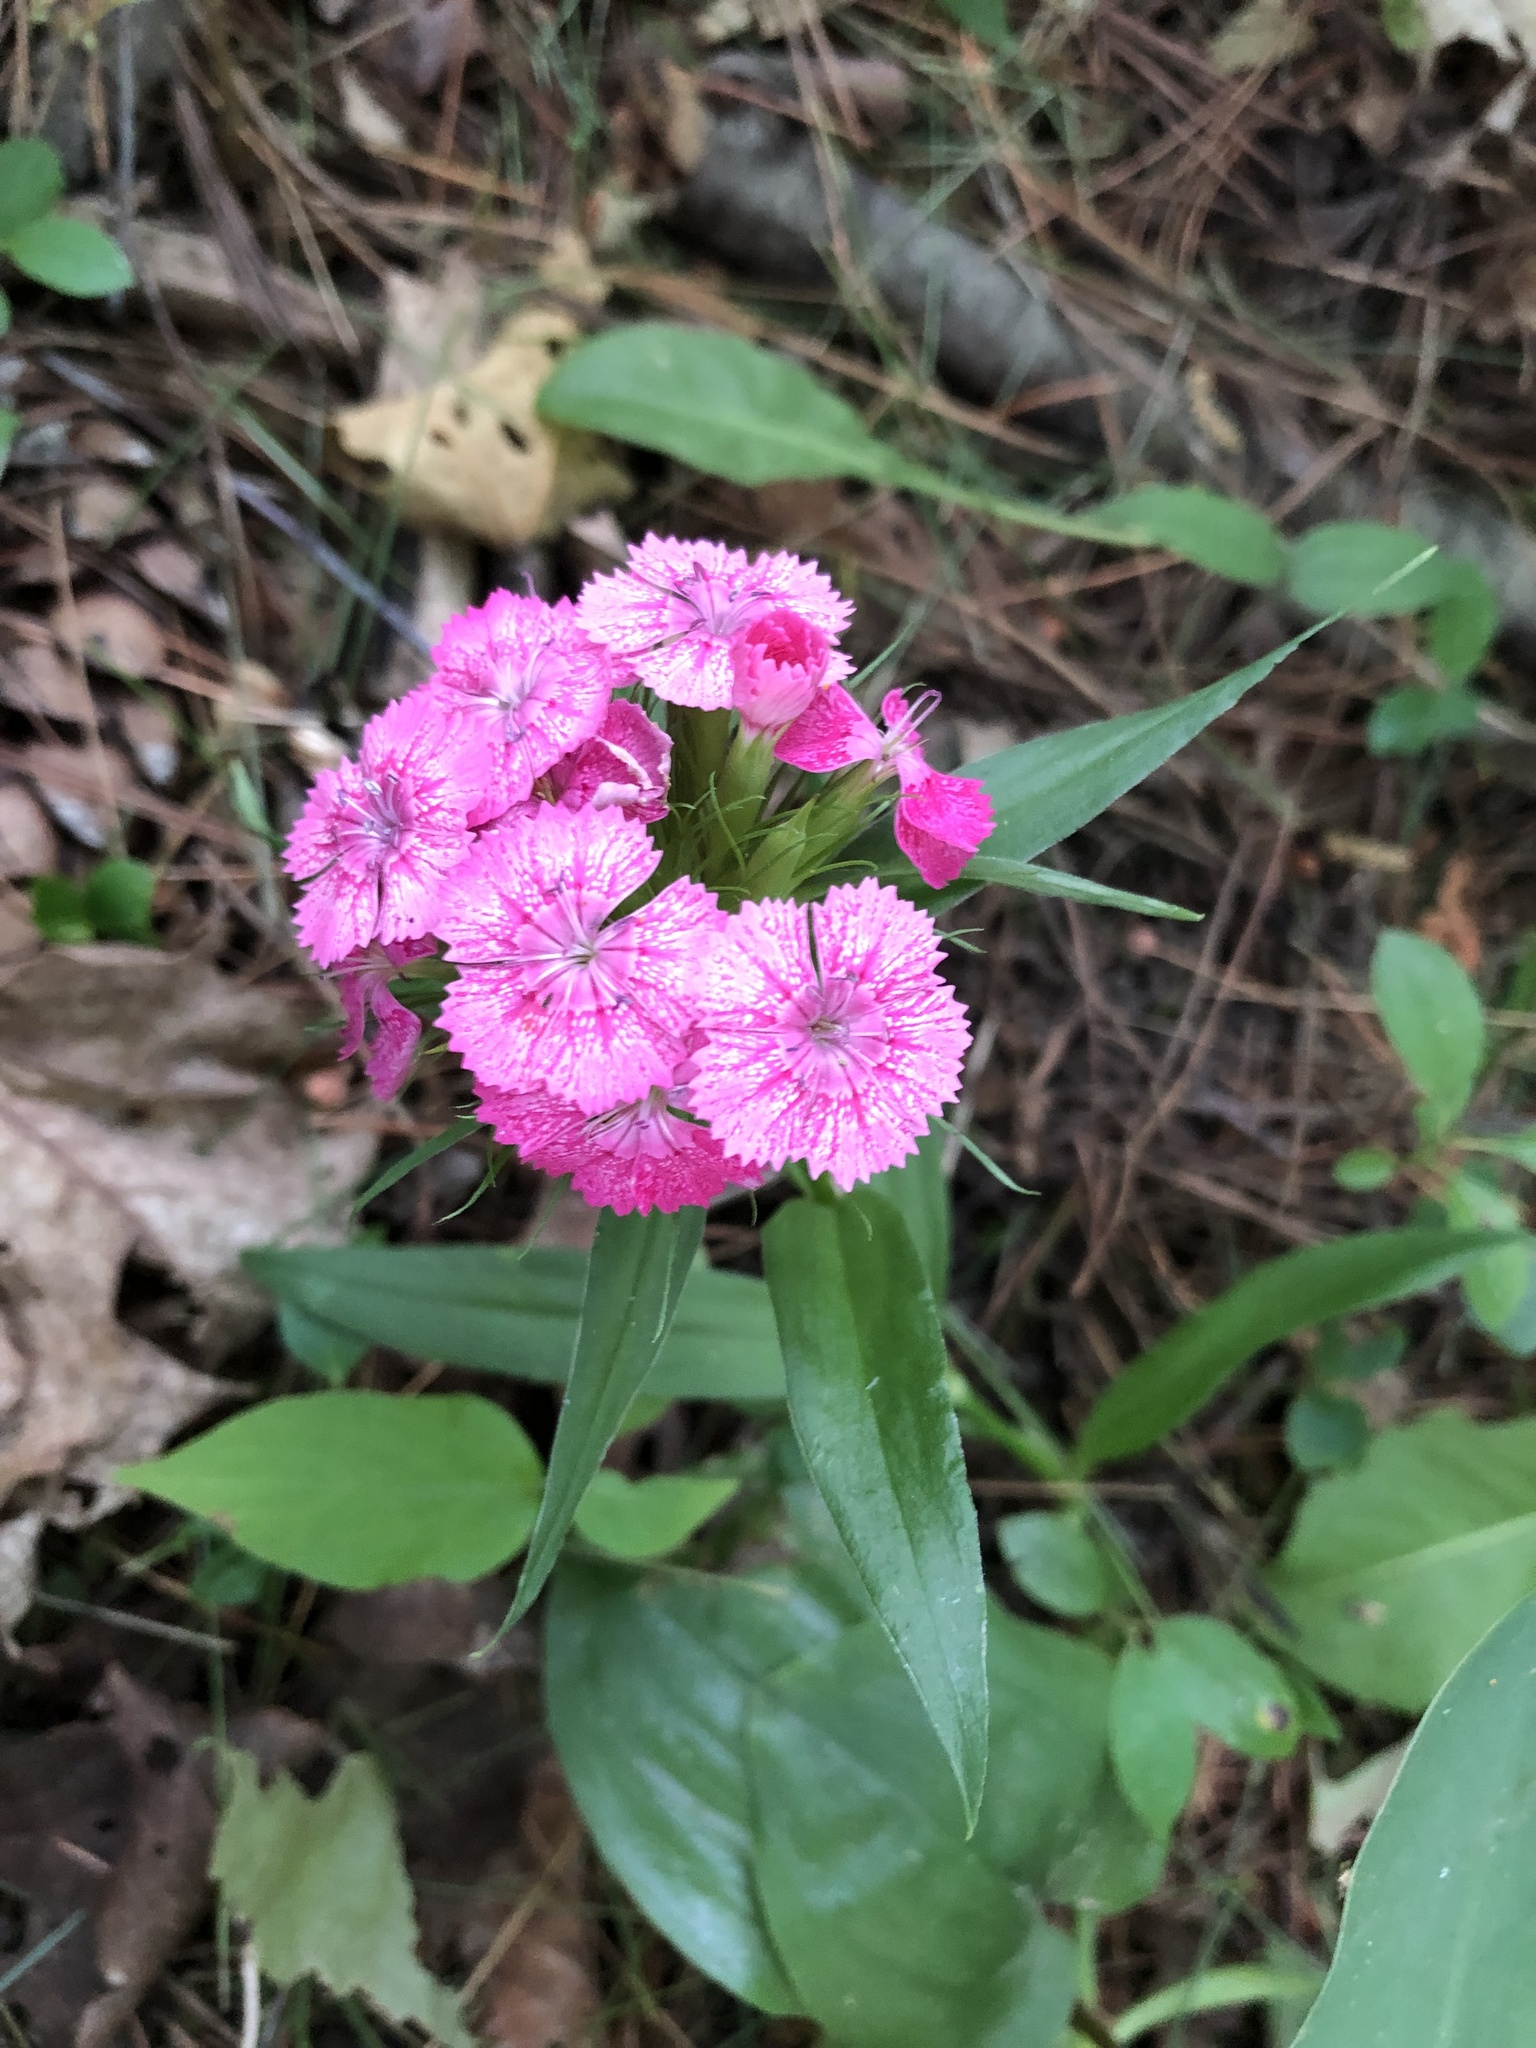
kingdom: Plantae
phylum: Tracheophyta
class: Magnoliopsida
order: Caryophyllales
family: Caryophyllaceae
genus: Dianthus
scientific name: Dianthus barbatus
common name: Sweet-william
